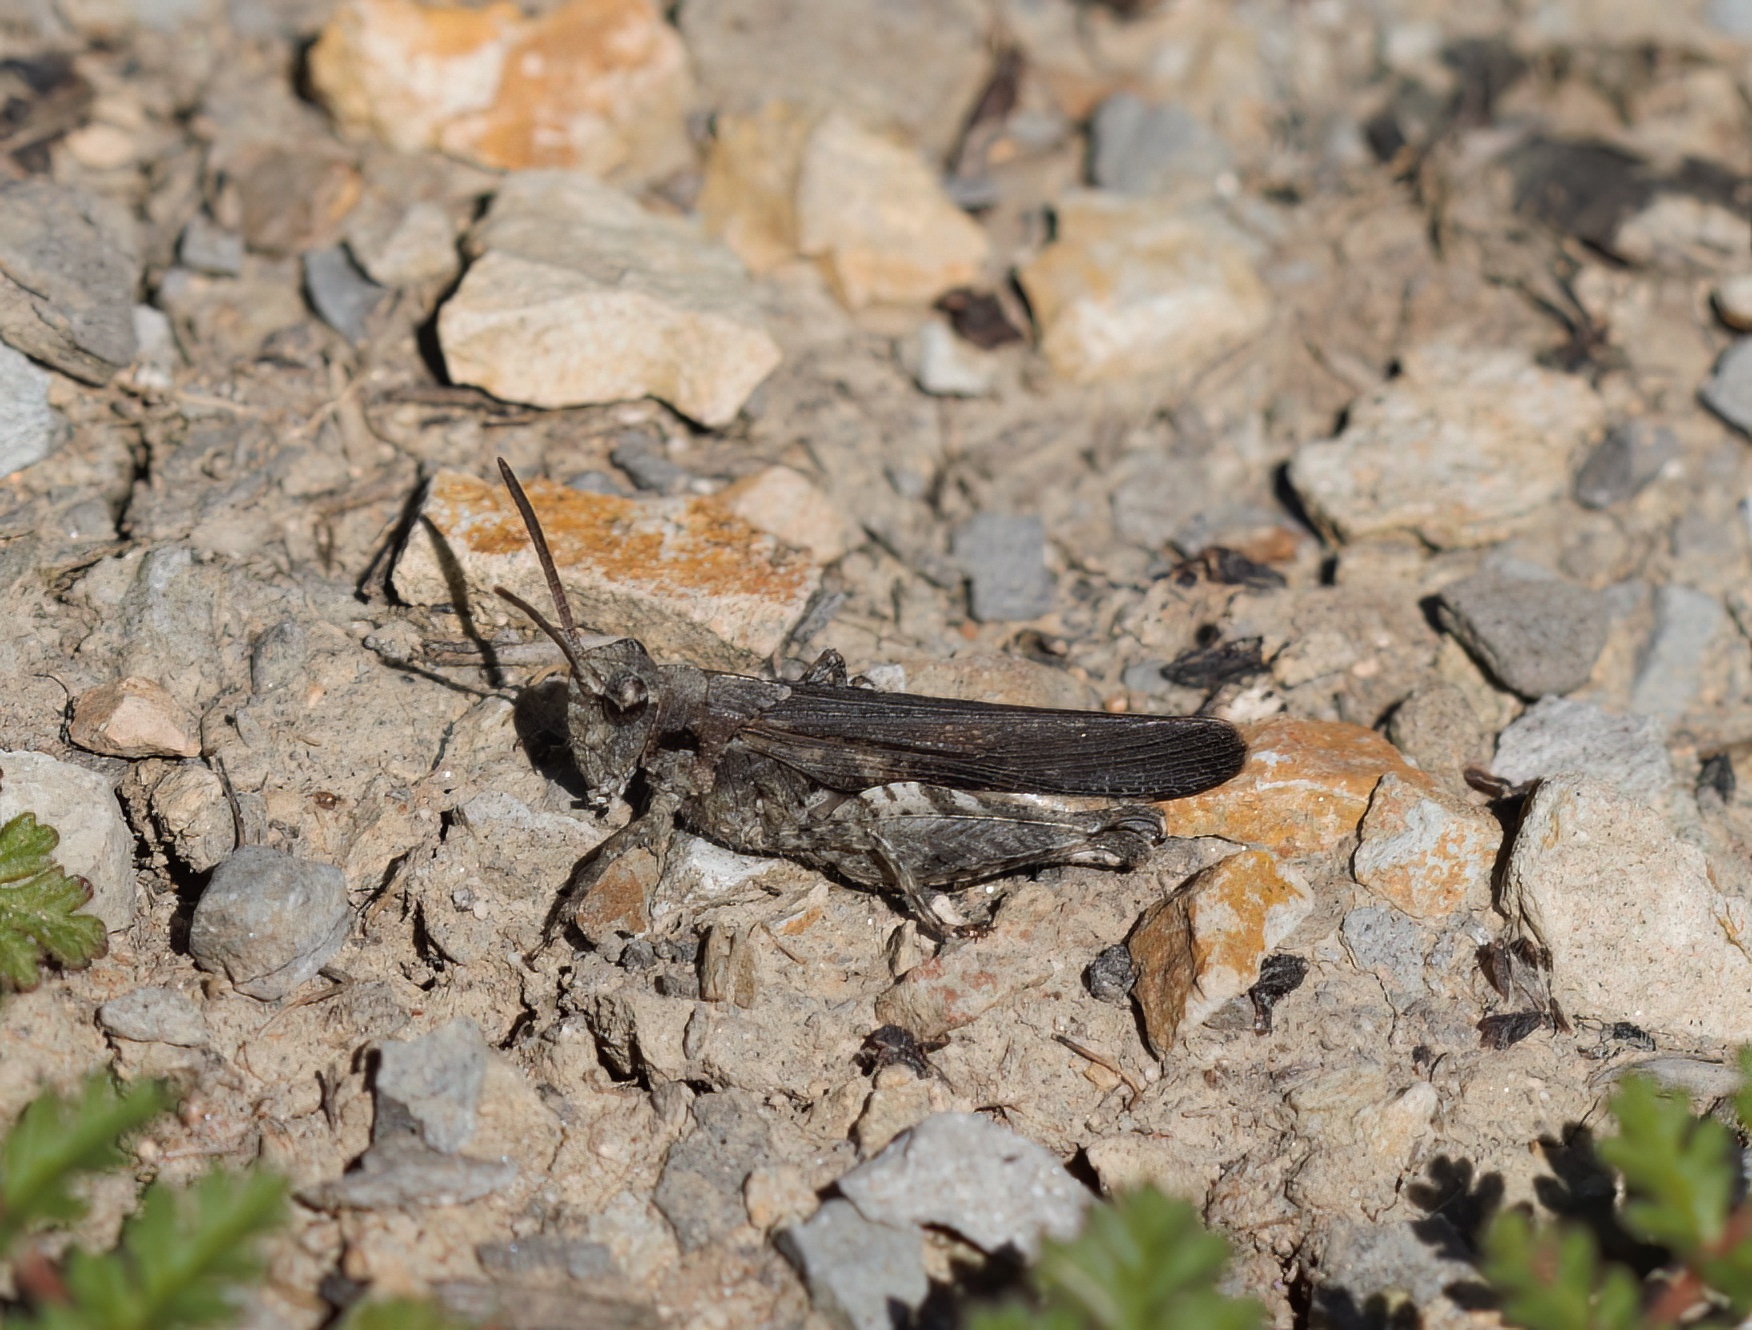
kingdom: Animalia
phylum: Arthropoda
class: Insecta
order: Orthoptera
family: Acrididae
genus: Chimarocephala
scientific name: Chimarocephala pacifica
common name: Painted meadow grasshopper
